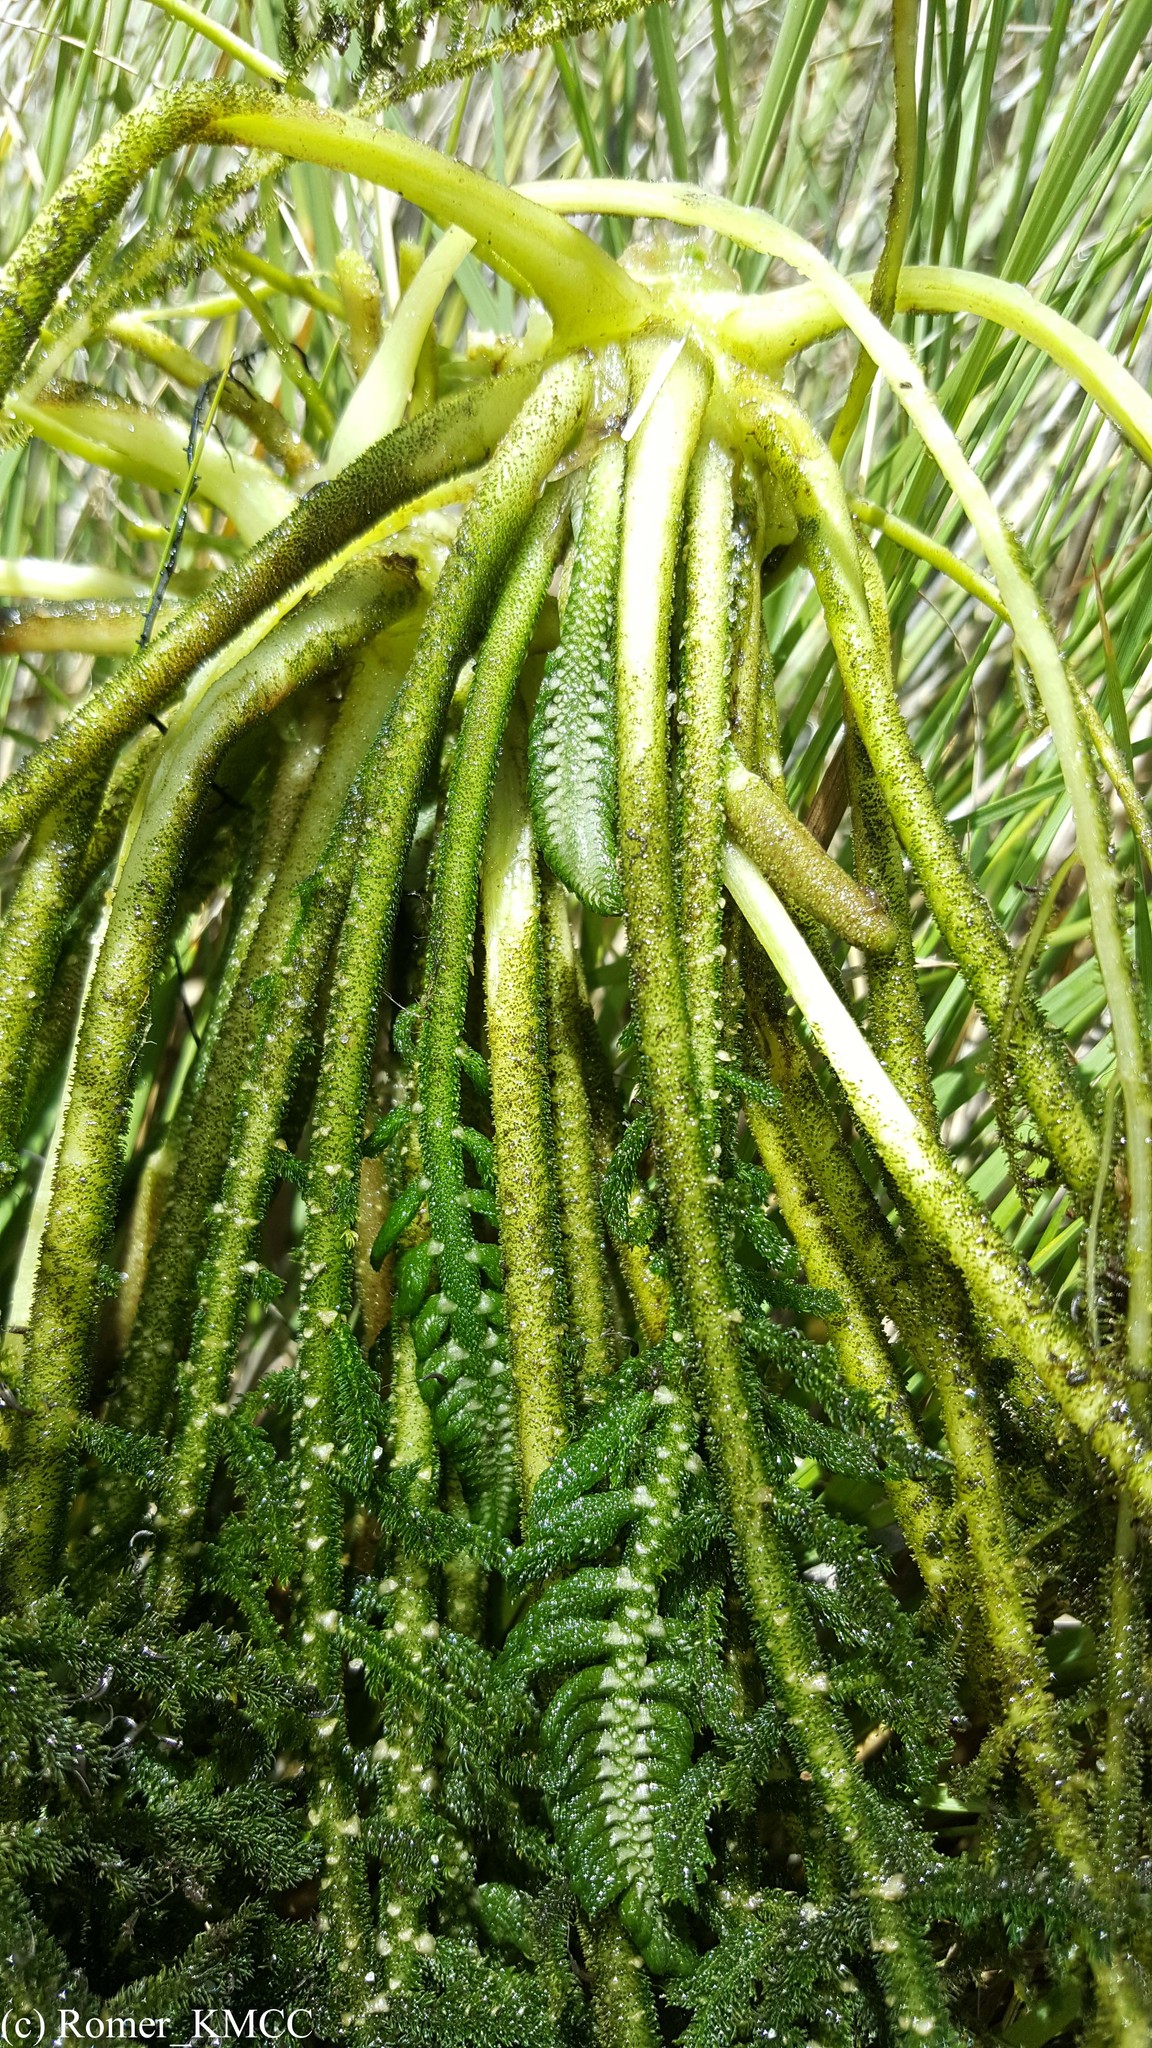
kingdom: Plantae
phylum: Tracheophyta
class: Magnoliopsida
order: Cornales
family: Hydrostachyaceae
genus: Hydrostachys
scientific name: Hydrostachys imbricata
